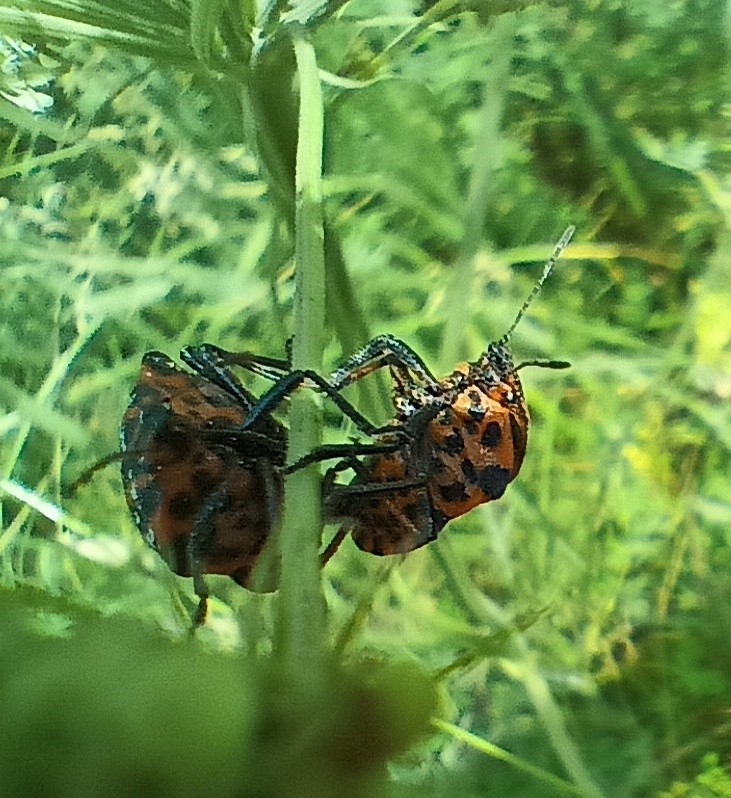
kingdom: Animalia
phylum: Arthropoda
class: Insecta
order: Hemiptera
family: Pentatomidae
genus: Graphosoma
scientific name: Graphosoma italicum
